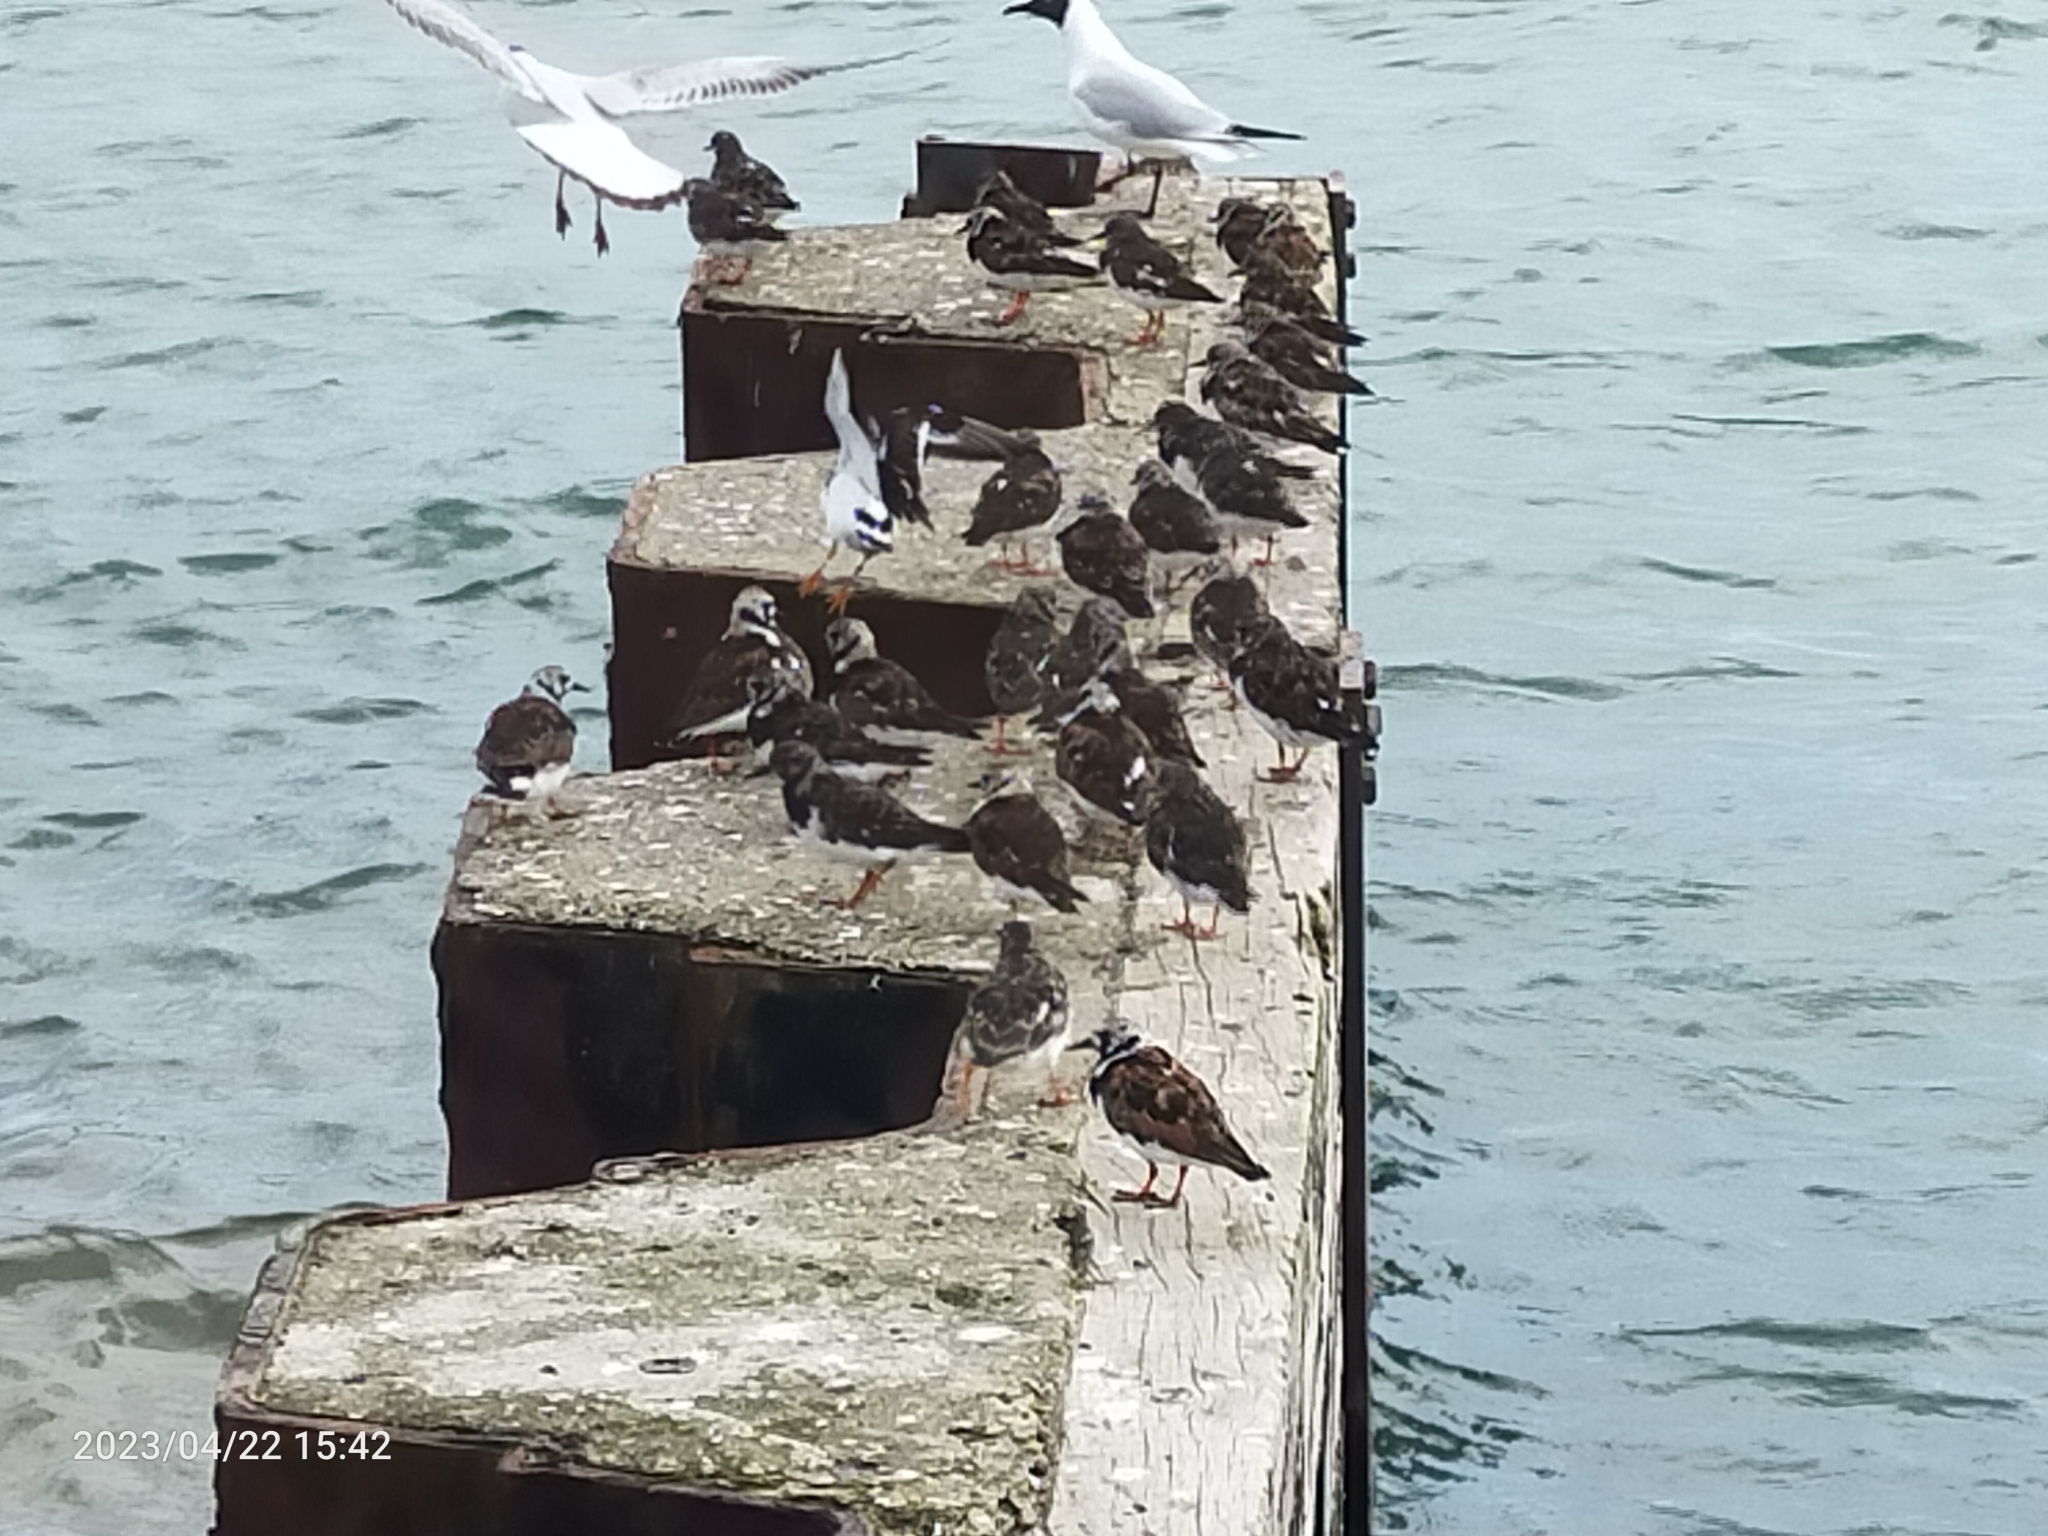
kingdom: Animalia
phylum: Chordata
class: Aves
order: Charadriiformes
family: Scolopacidae
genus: Arenaria
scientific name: Arenaria interpres
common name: Ruddy turnstone
